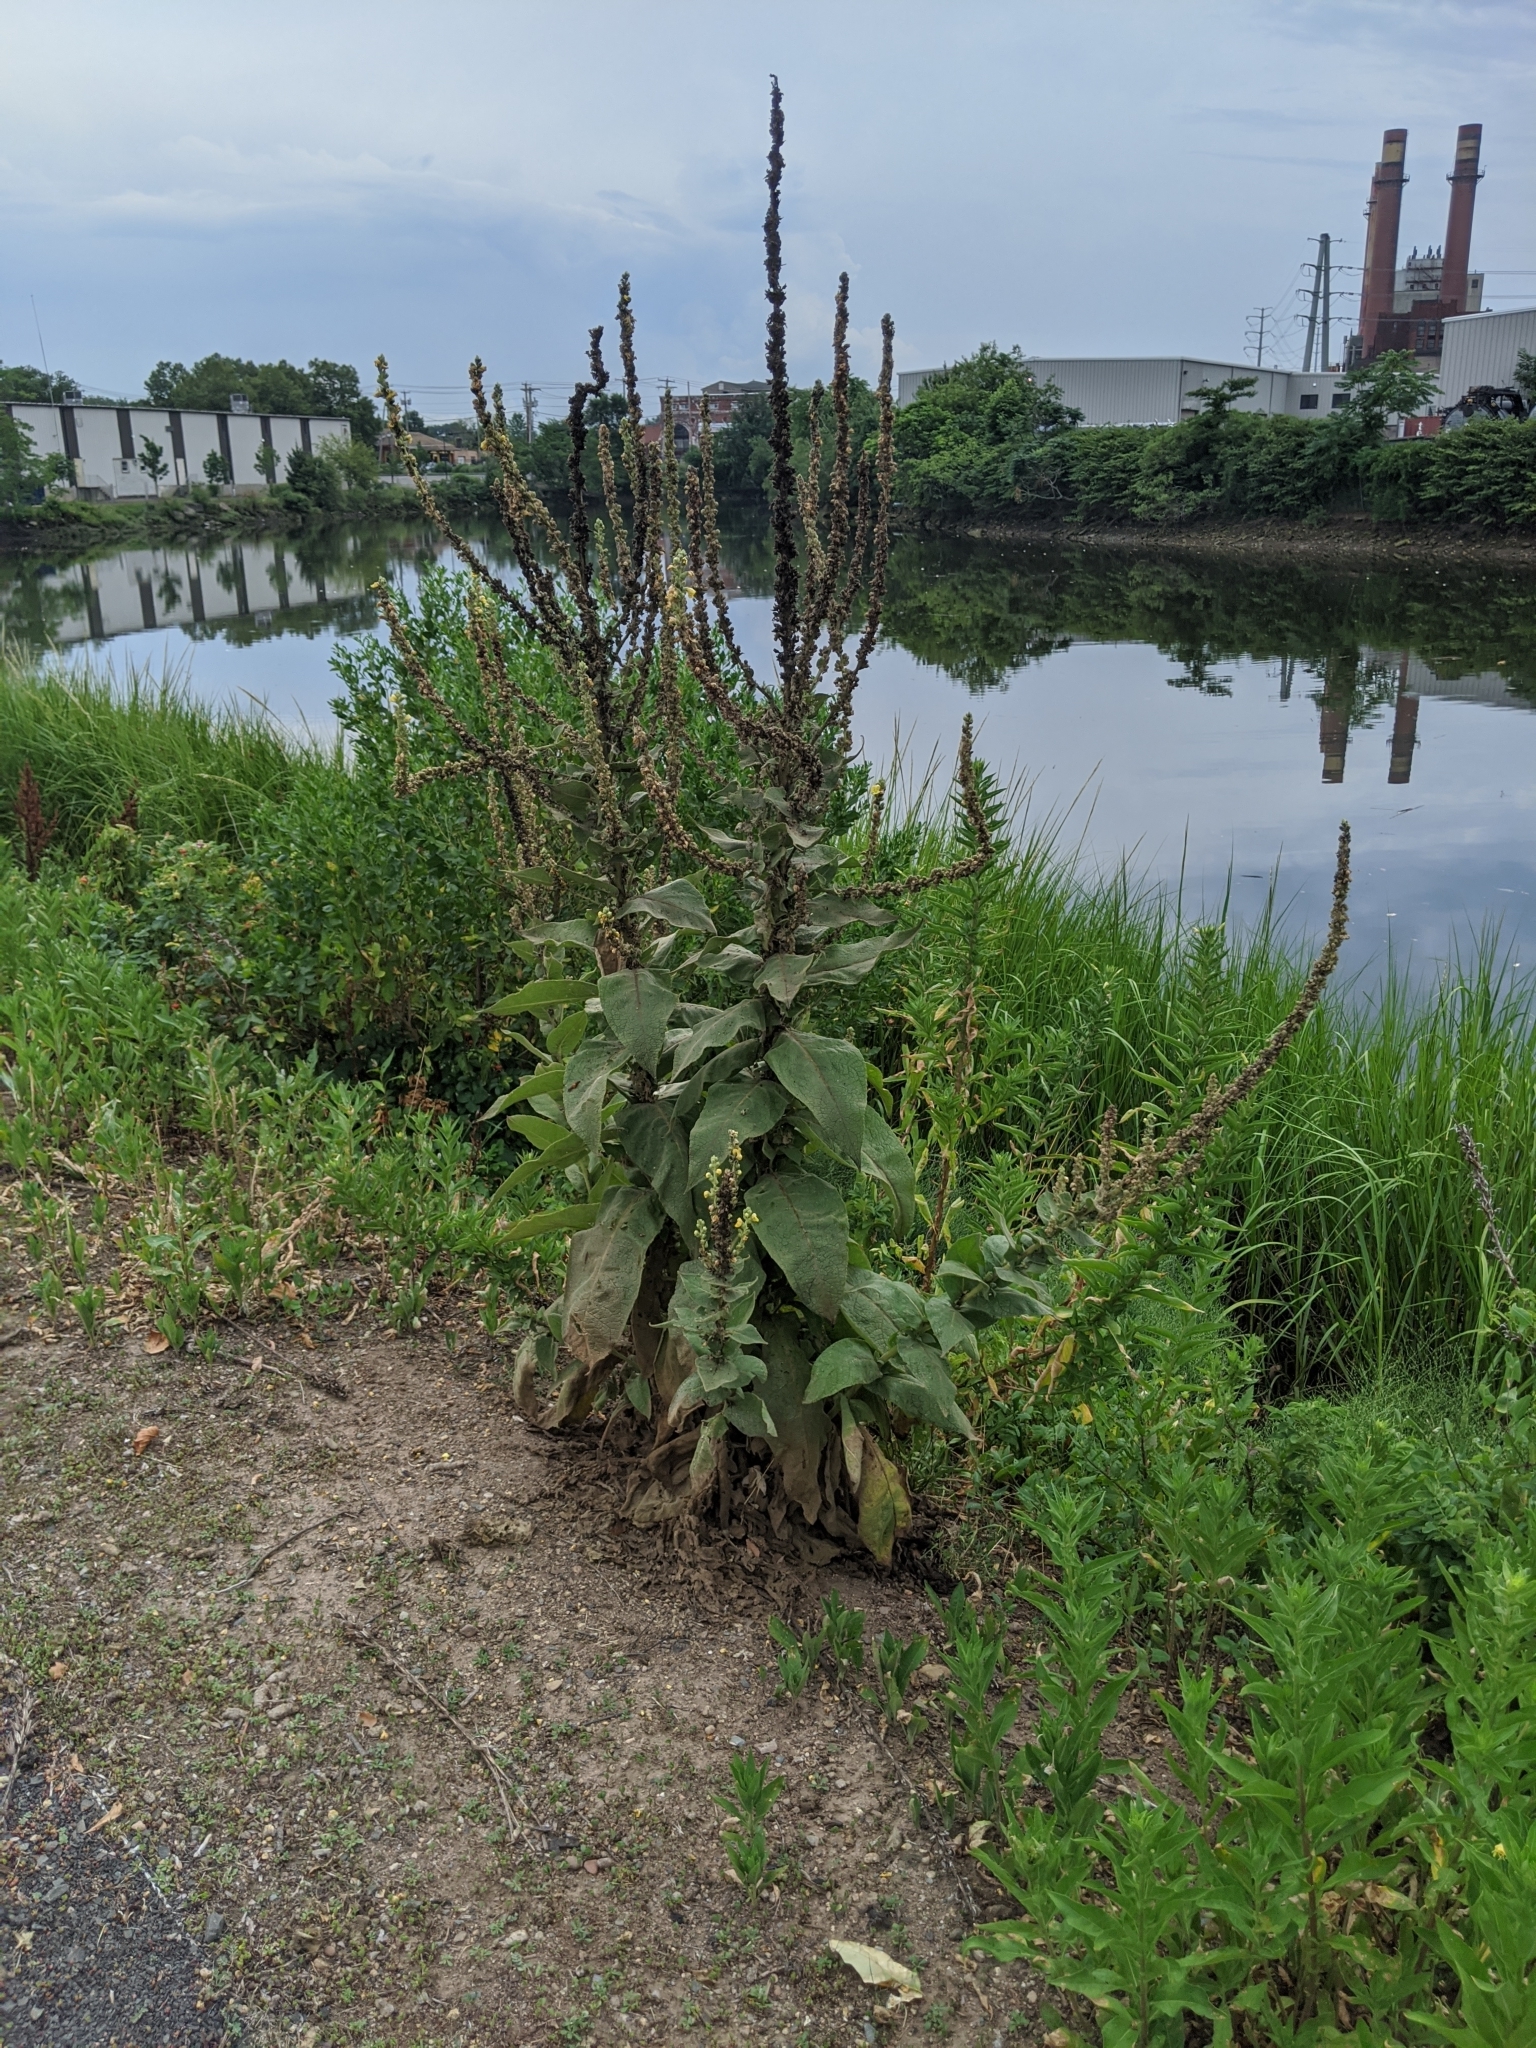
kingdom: Plantae
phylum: Tracheophyta
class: Magnoliopsida
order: Lamiales
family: Scrophulariaceae
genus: Verbascum
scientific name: Verbascum thapsus
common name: Common mullein
